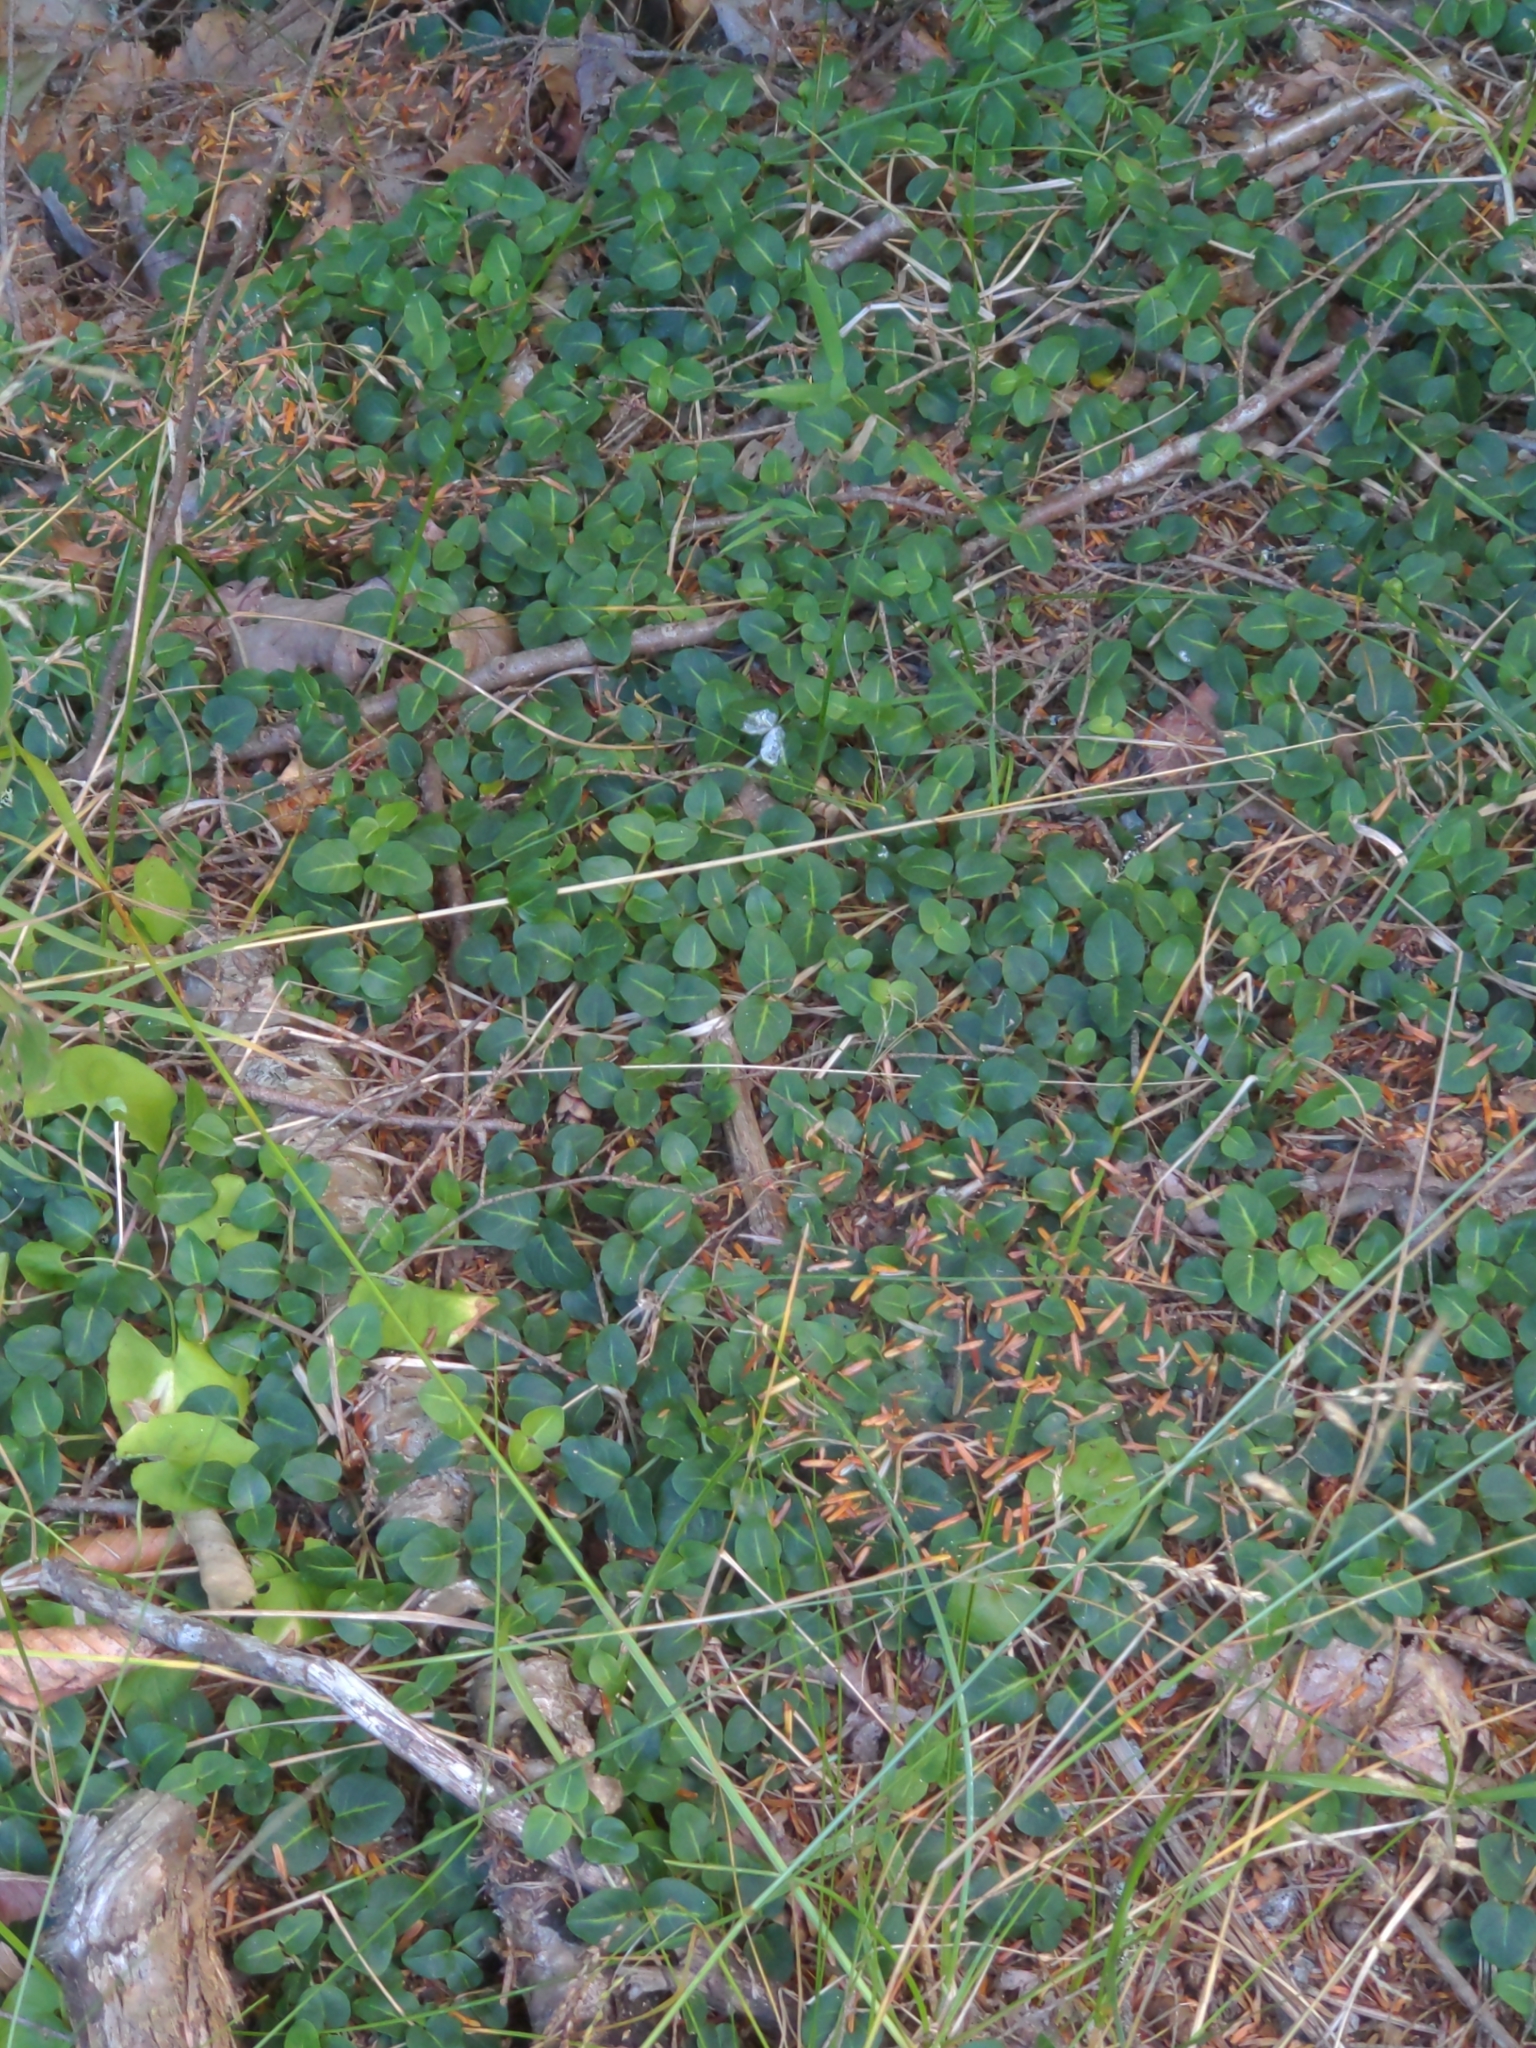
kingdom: Plantae
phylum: Tracheophyta
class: Magnoliopsida
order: Gentianales
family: Rubiaceae
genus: Mitchella
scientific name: Mitchella repens
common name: Partridge-berry
